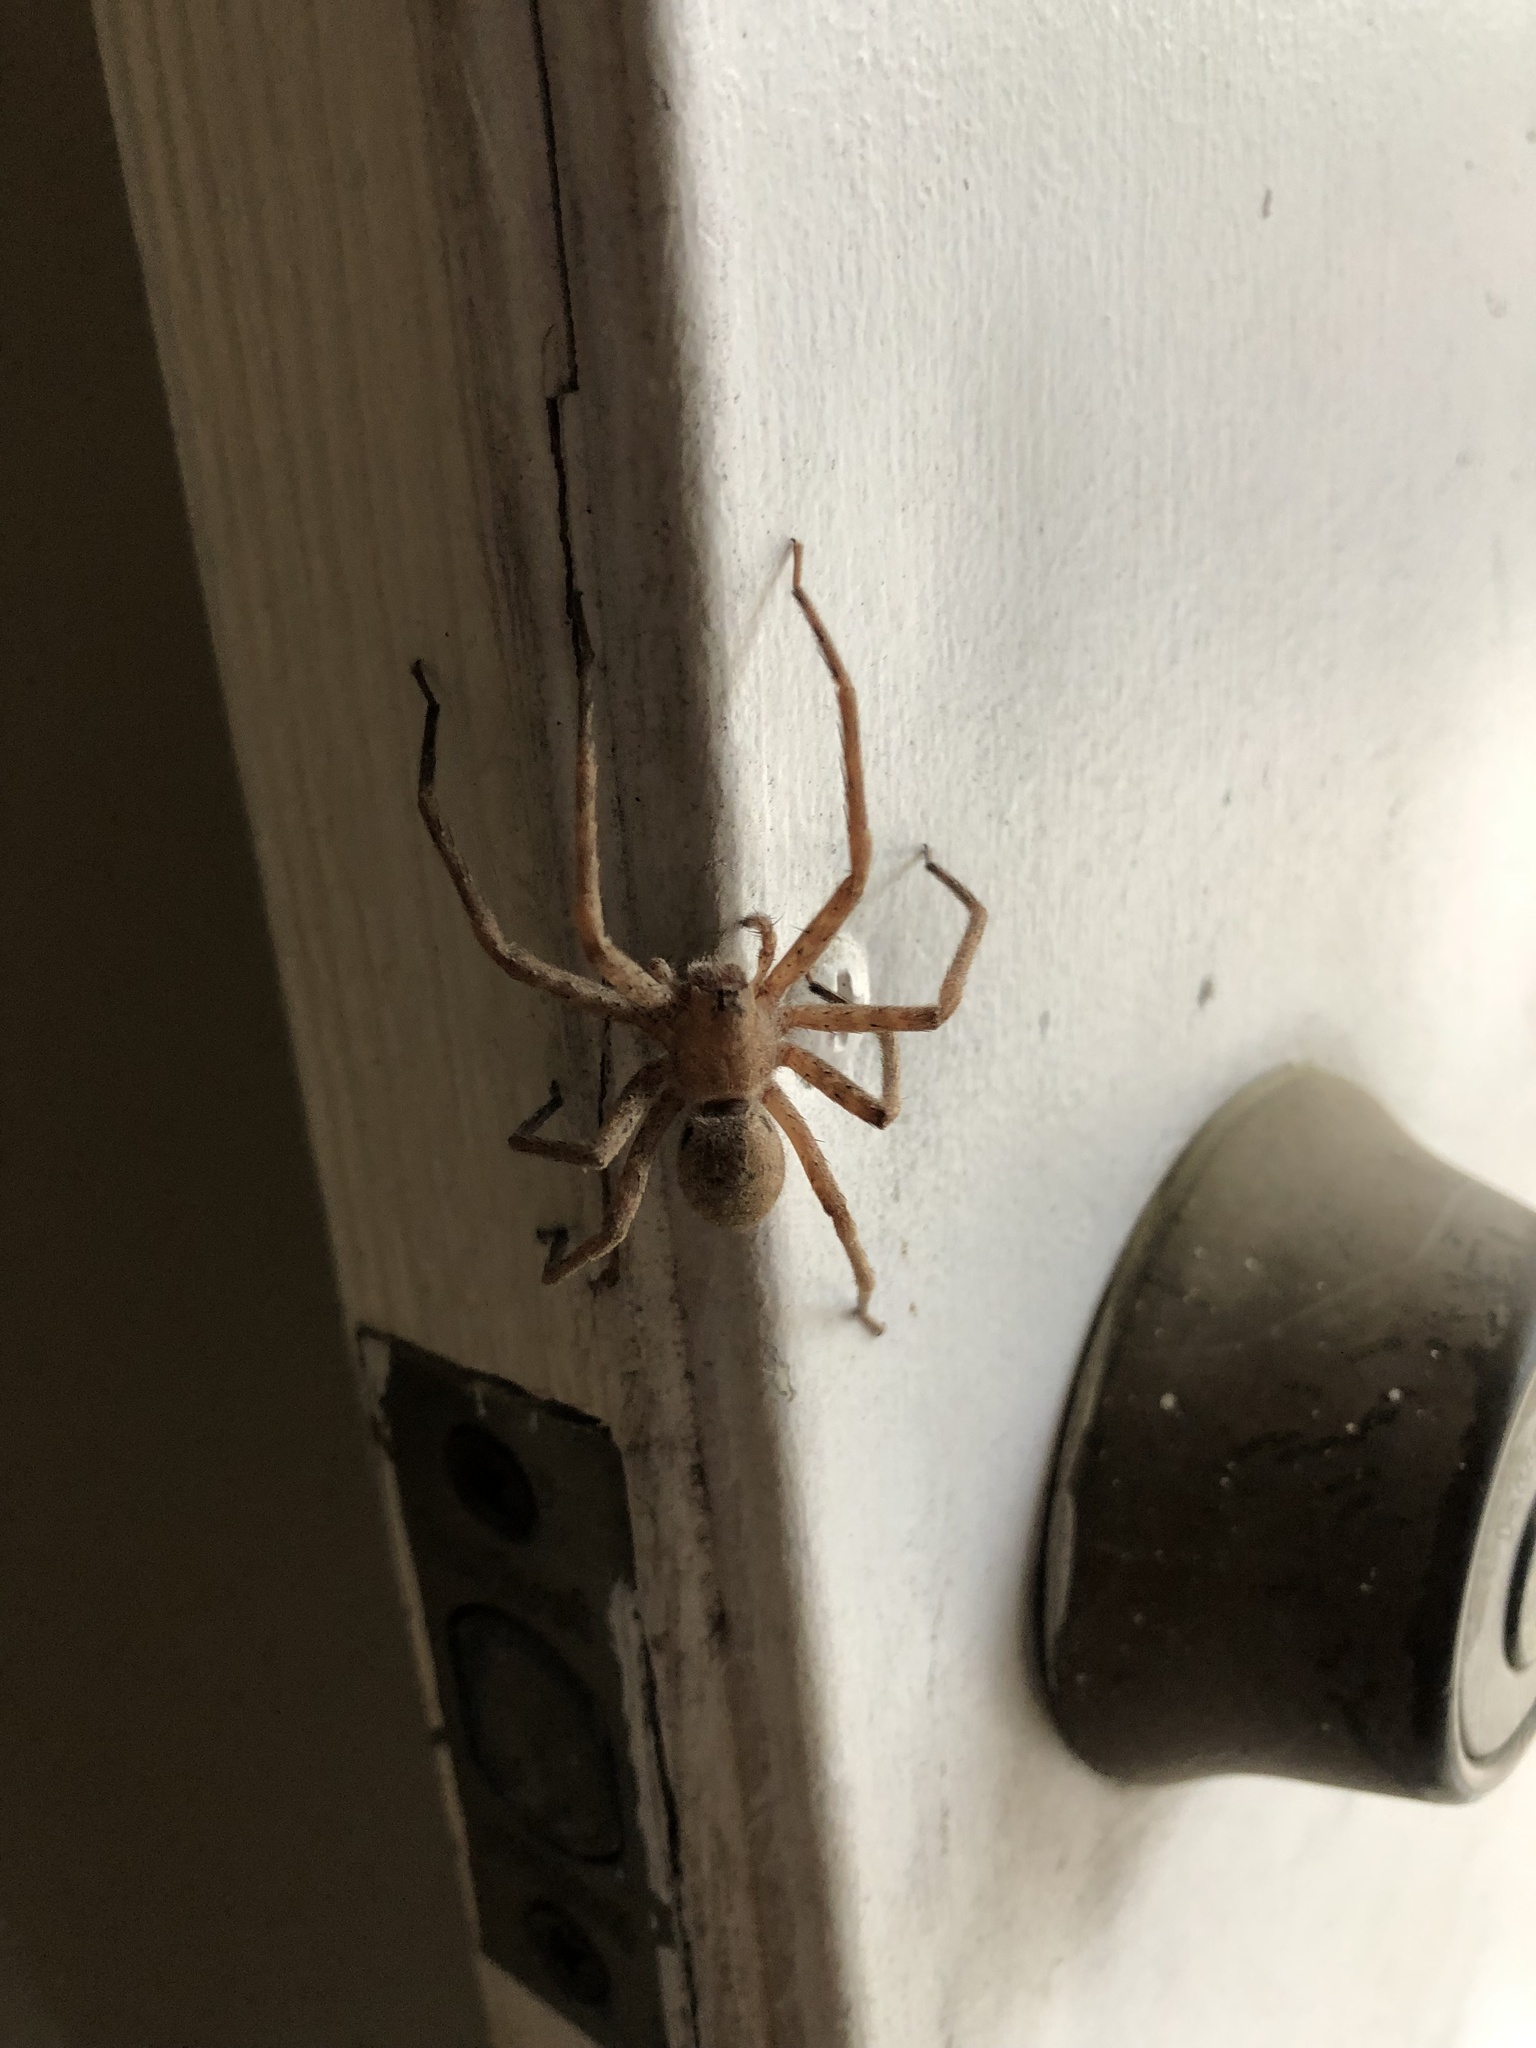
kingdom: Animalia
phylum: Arthropoda
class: Arachnida
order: Araneae
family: Pisauridae
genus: Pisaurina
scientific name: Pisaurina mira
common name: American nursery web spider
